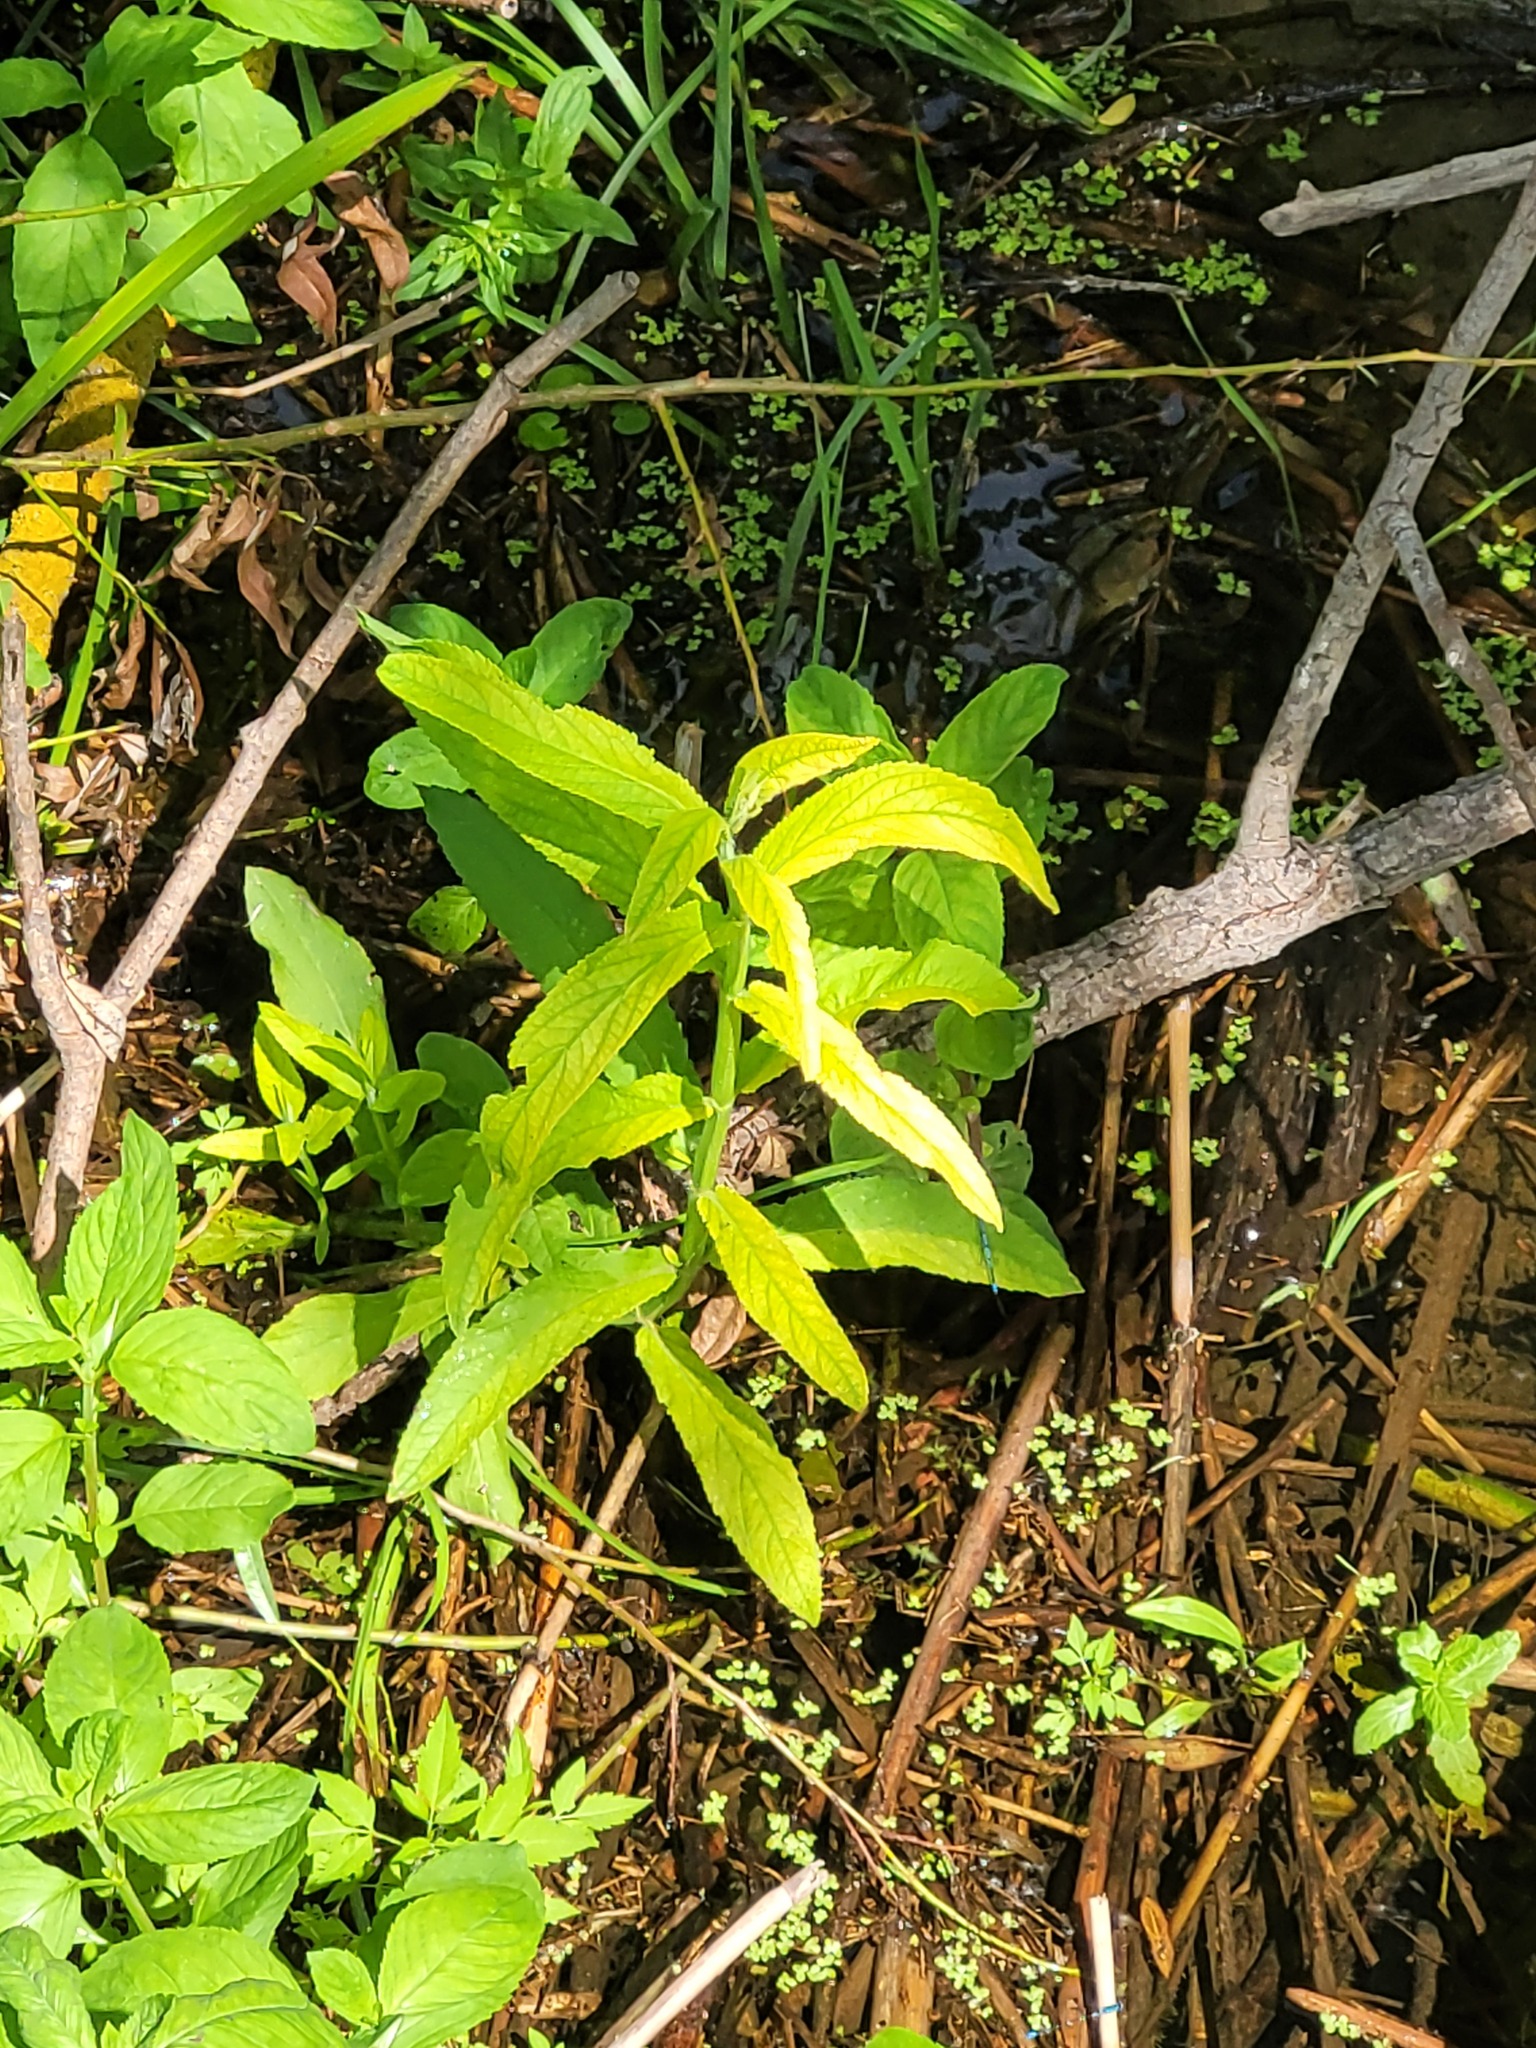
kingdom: Plantae
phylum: Tracheophyta
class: Magnoliopsida
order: Lamiales
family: Lamiaceae
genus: Stachys
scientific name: Stachys palustris
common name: Marsh woundwort
